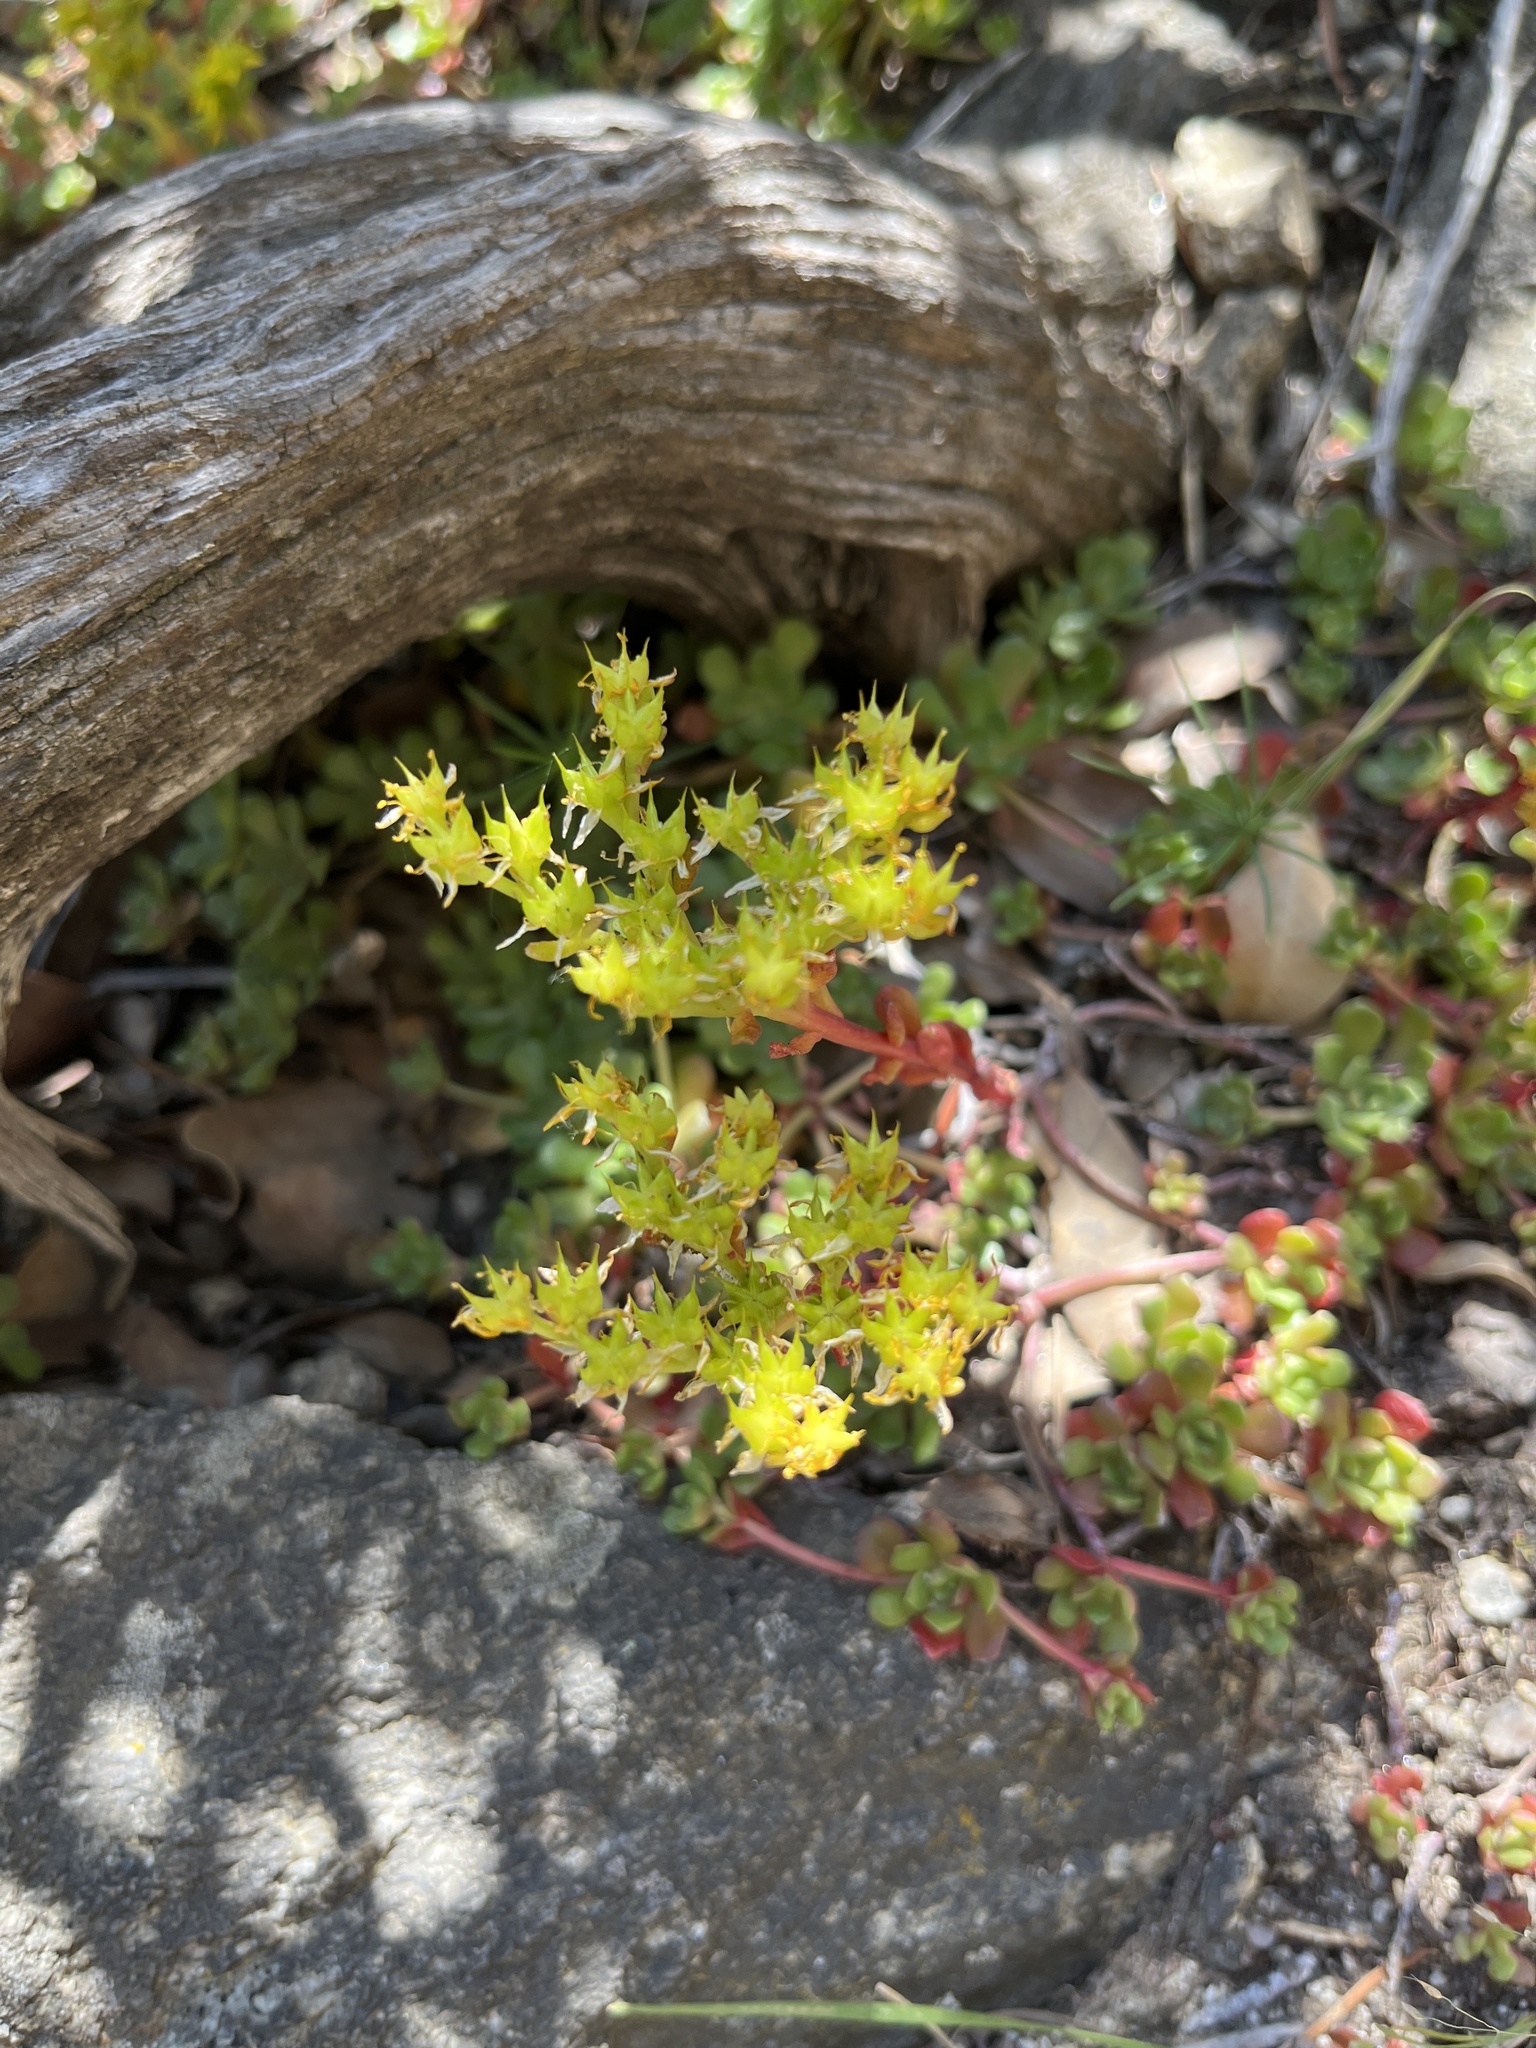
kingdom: Plantae
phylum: Tracheophyta
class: Magnoliopsida
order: Saxifragales
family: Crassulaceae
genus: Sedum
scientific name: Sedum spathulifolium
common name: Colorado stonecrop
